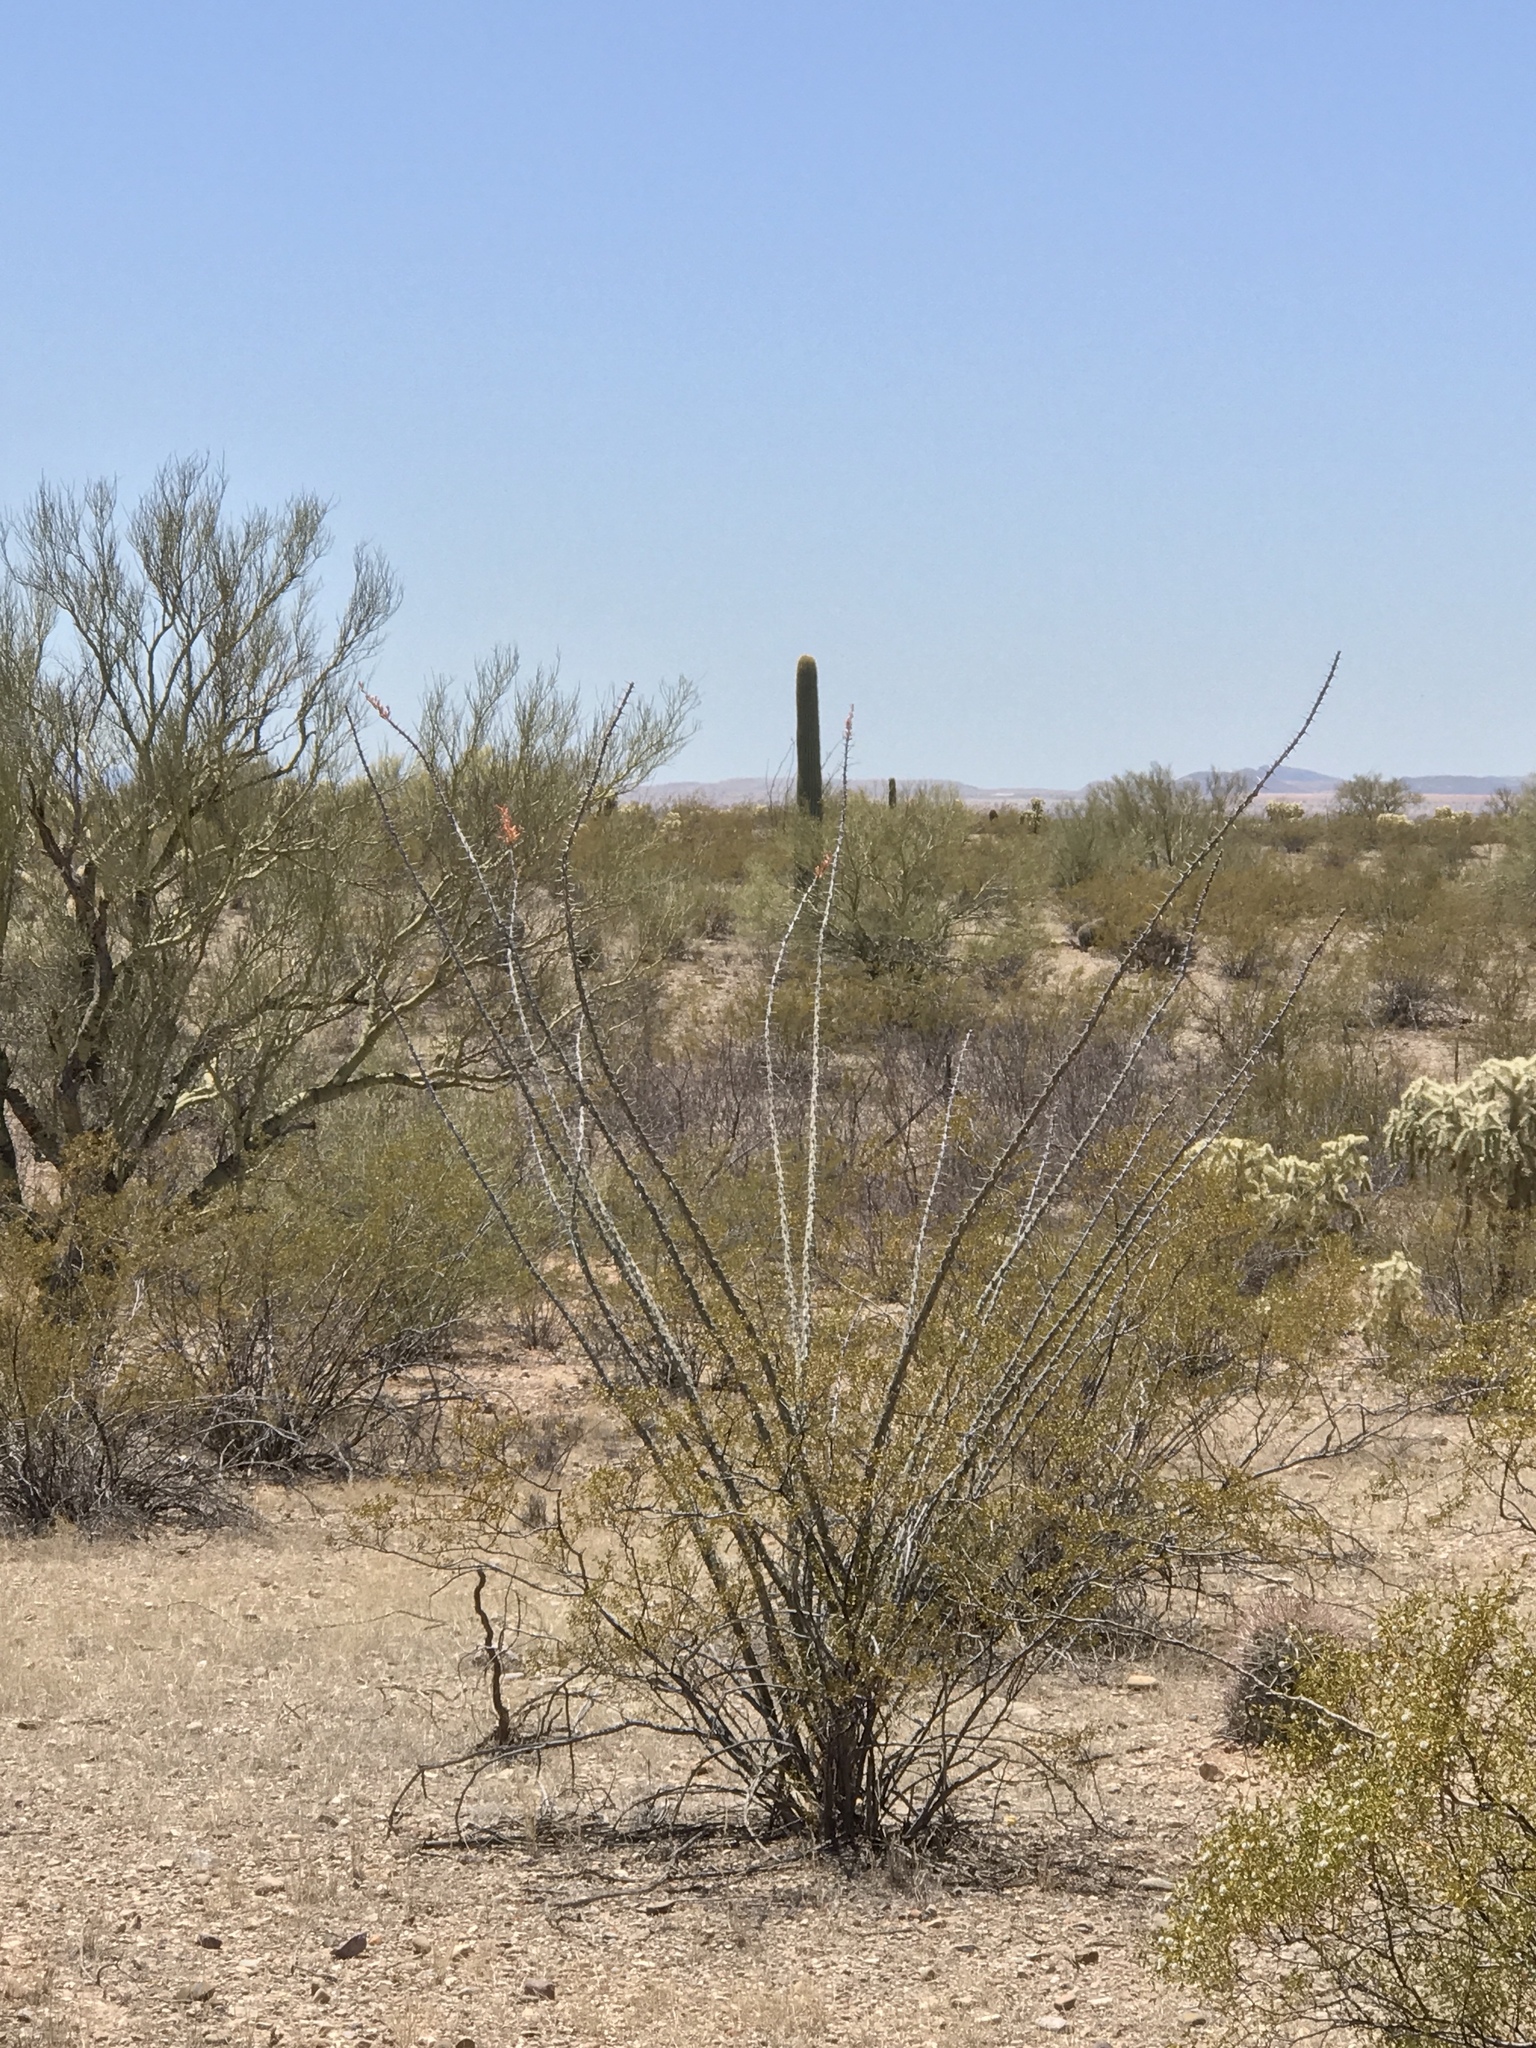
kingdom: Plantae
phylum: Tracheophyta
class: Magnoliopsida
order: Ericales
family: Fouquieriaceae
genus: Fouquieria
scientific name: Fouquieria splendens
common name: Vine-cactus
